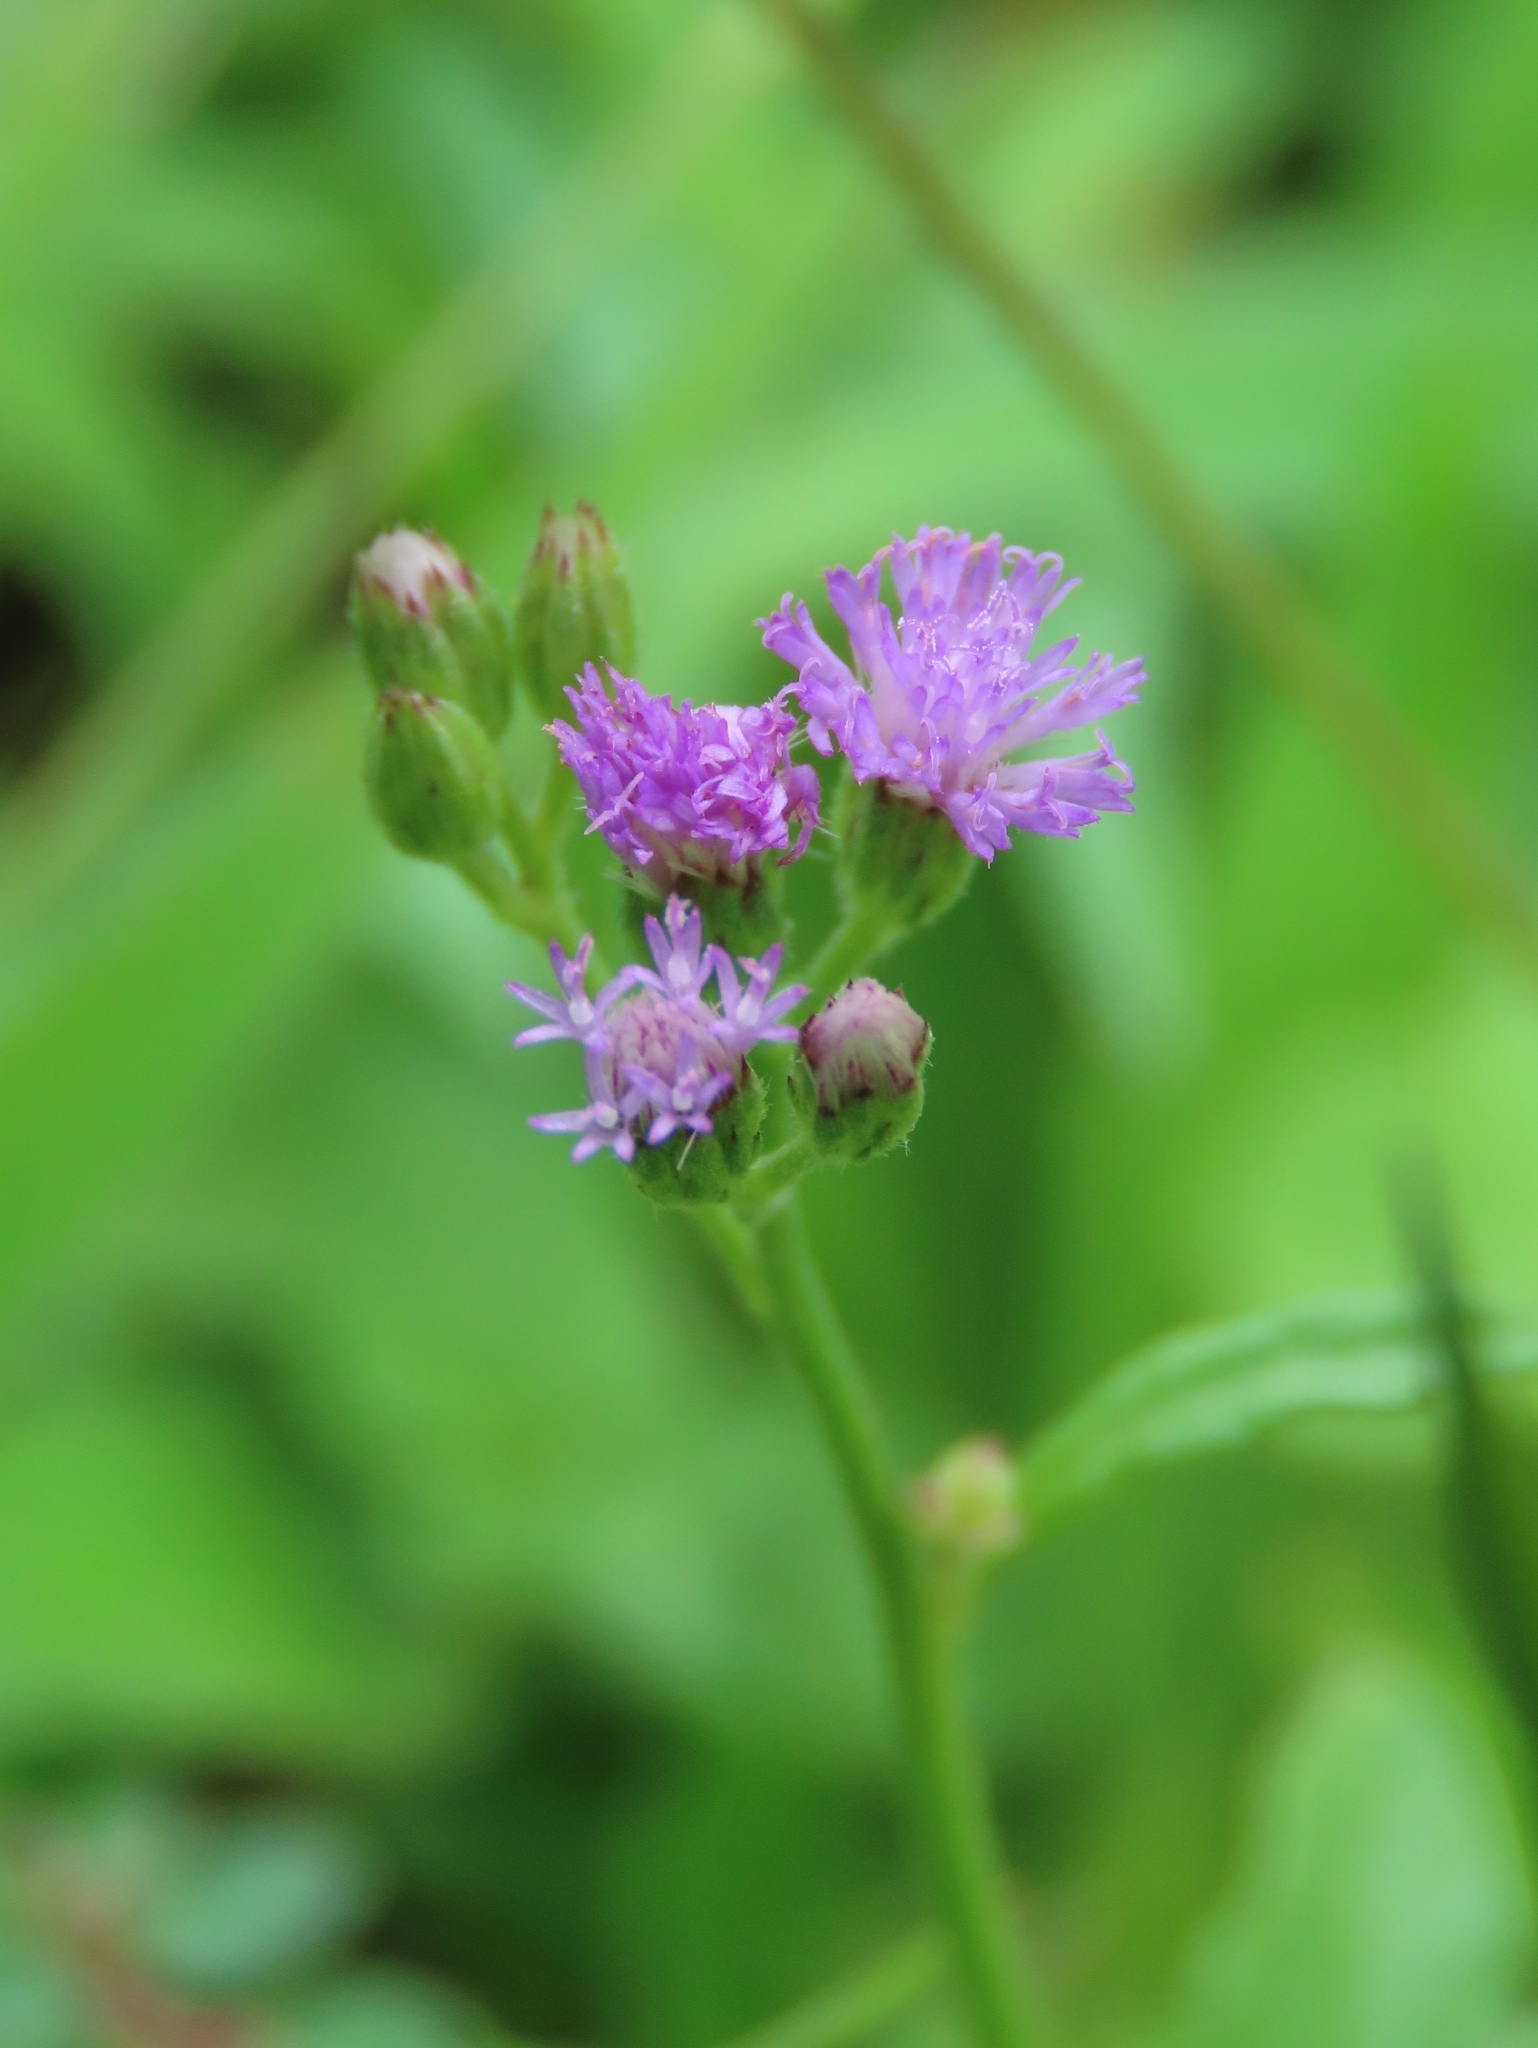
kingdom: Plantae
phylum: Tracheophyta
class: Magnoliopsida
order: Asterales
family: Asteraceae
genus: Cyanthillium
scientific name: Cyanthillium cinereum
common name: Little ironweed
